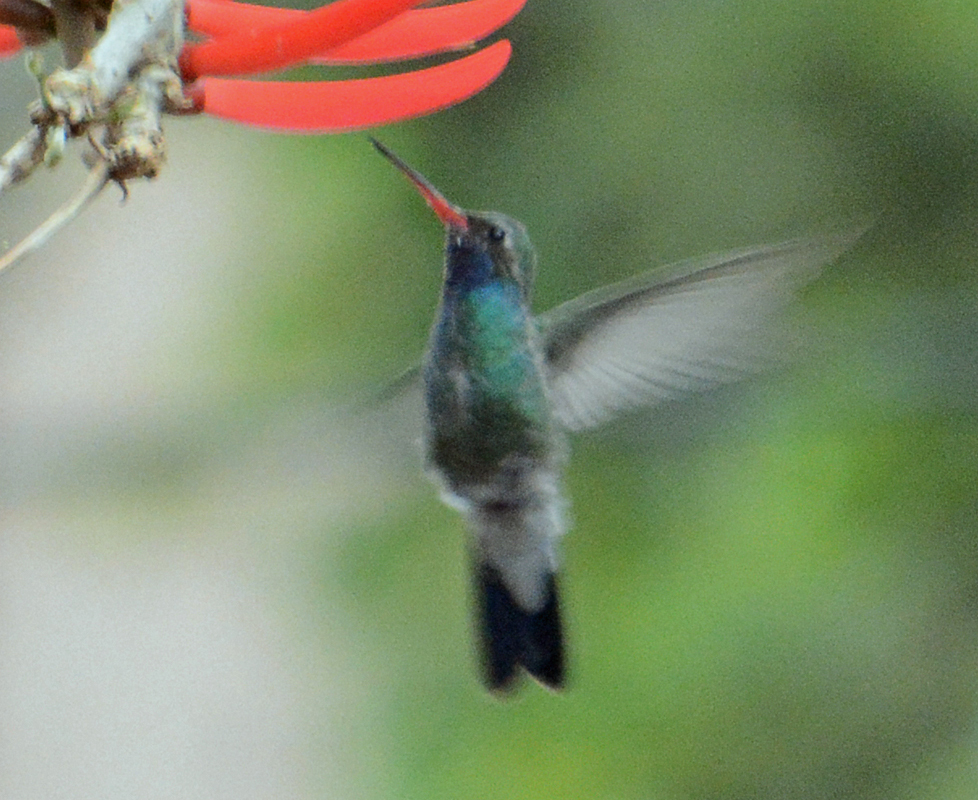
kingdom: Animalia
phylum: Chordata
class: Aves
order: Apodiformes
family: Trochilidae
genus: Cynanthus
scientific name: Cynanthus latirostris
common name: Broad-billed hummingbird
